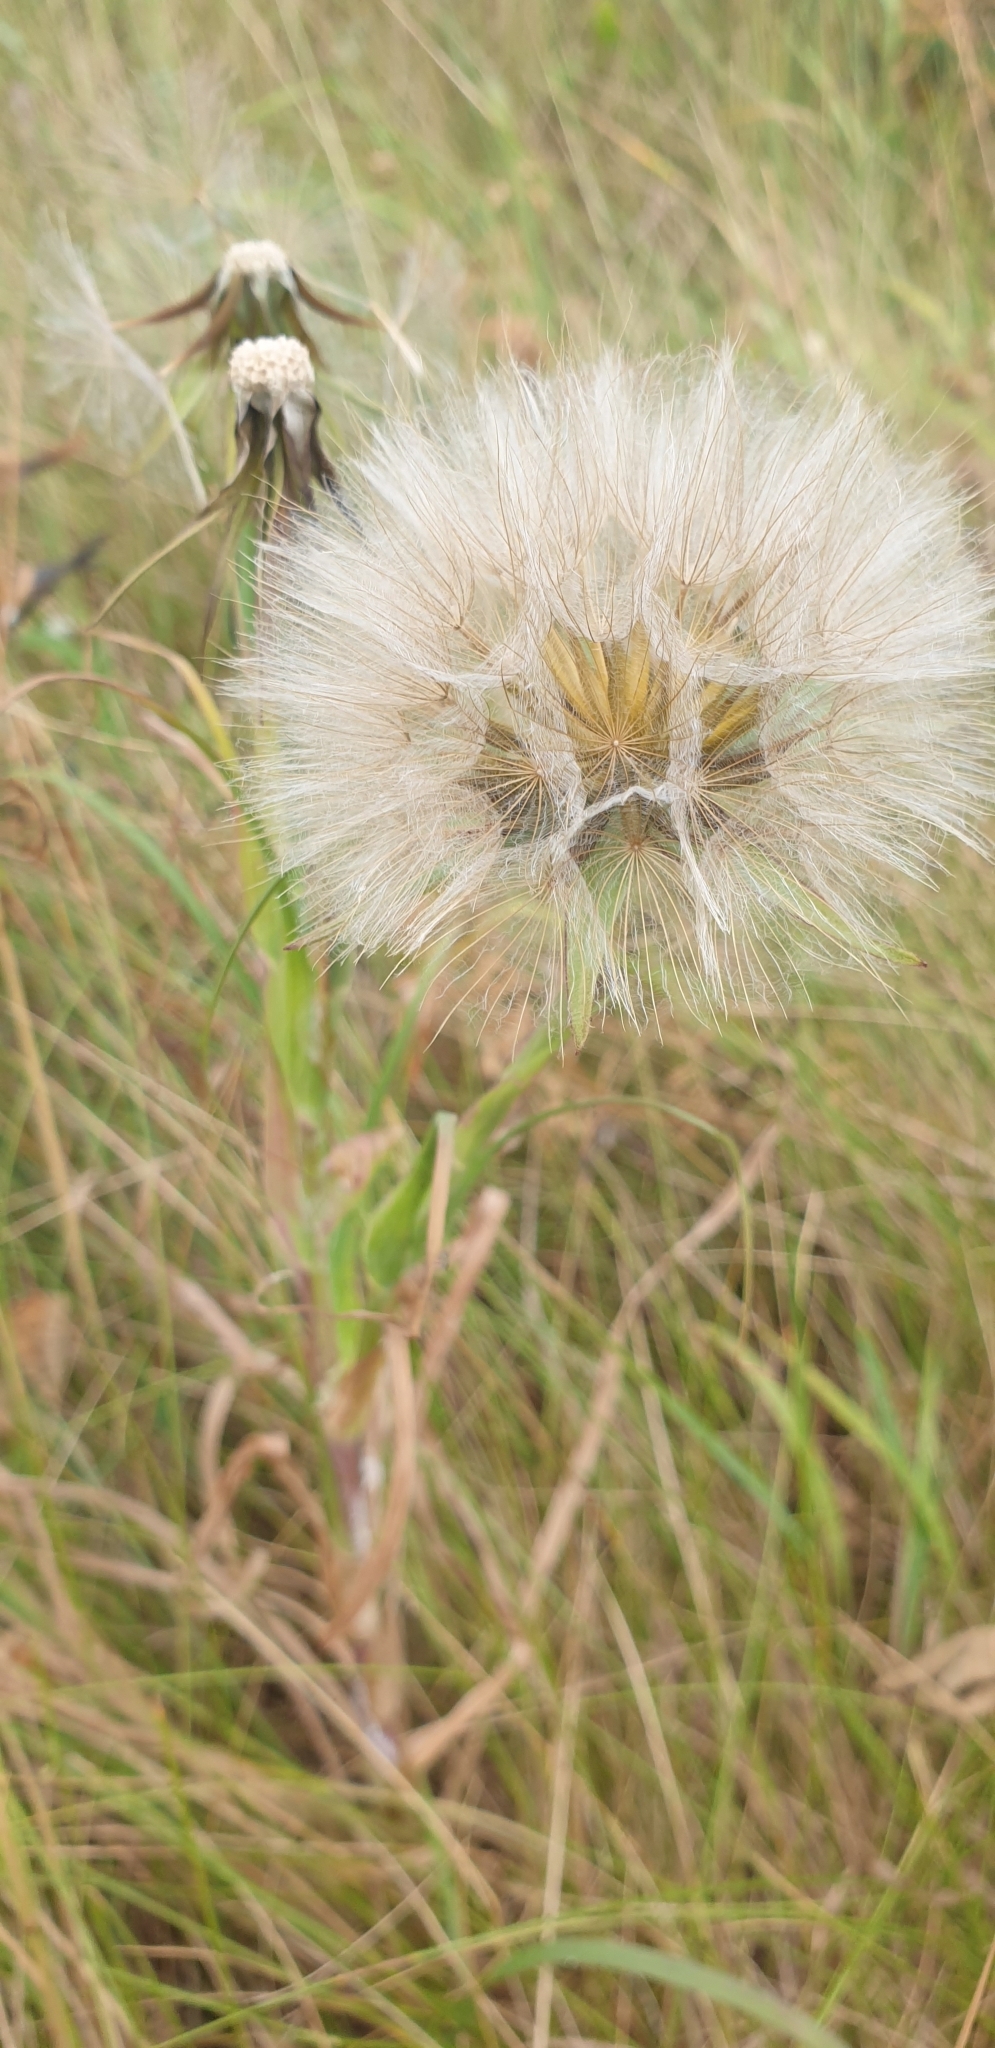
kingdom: Plantae
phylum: Tracheophyta
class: Magnoliopsida
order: Asterales
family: Asteraceae
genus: Tragopogon
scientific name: Tragopogon pratensis
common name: Goat's-beard
